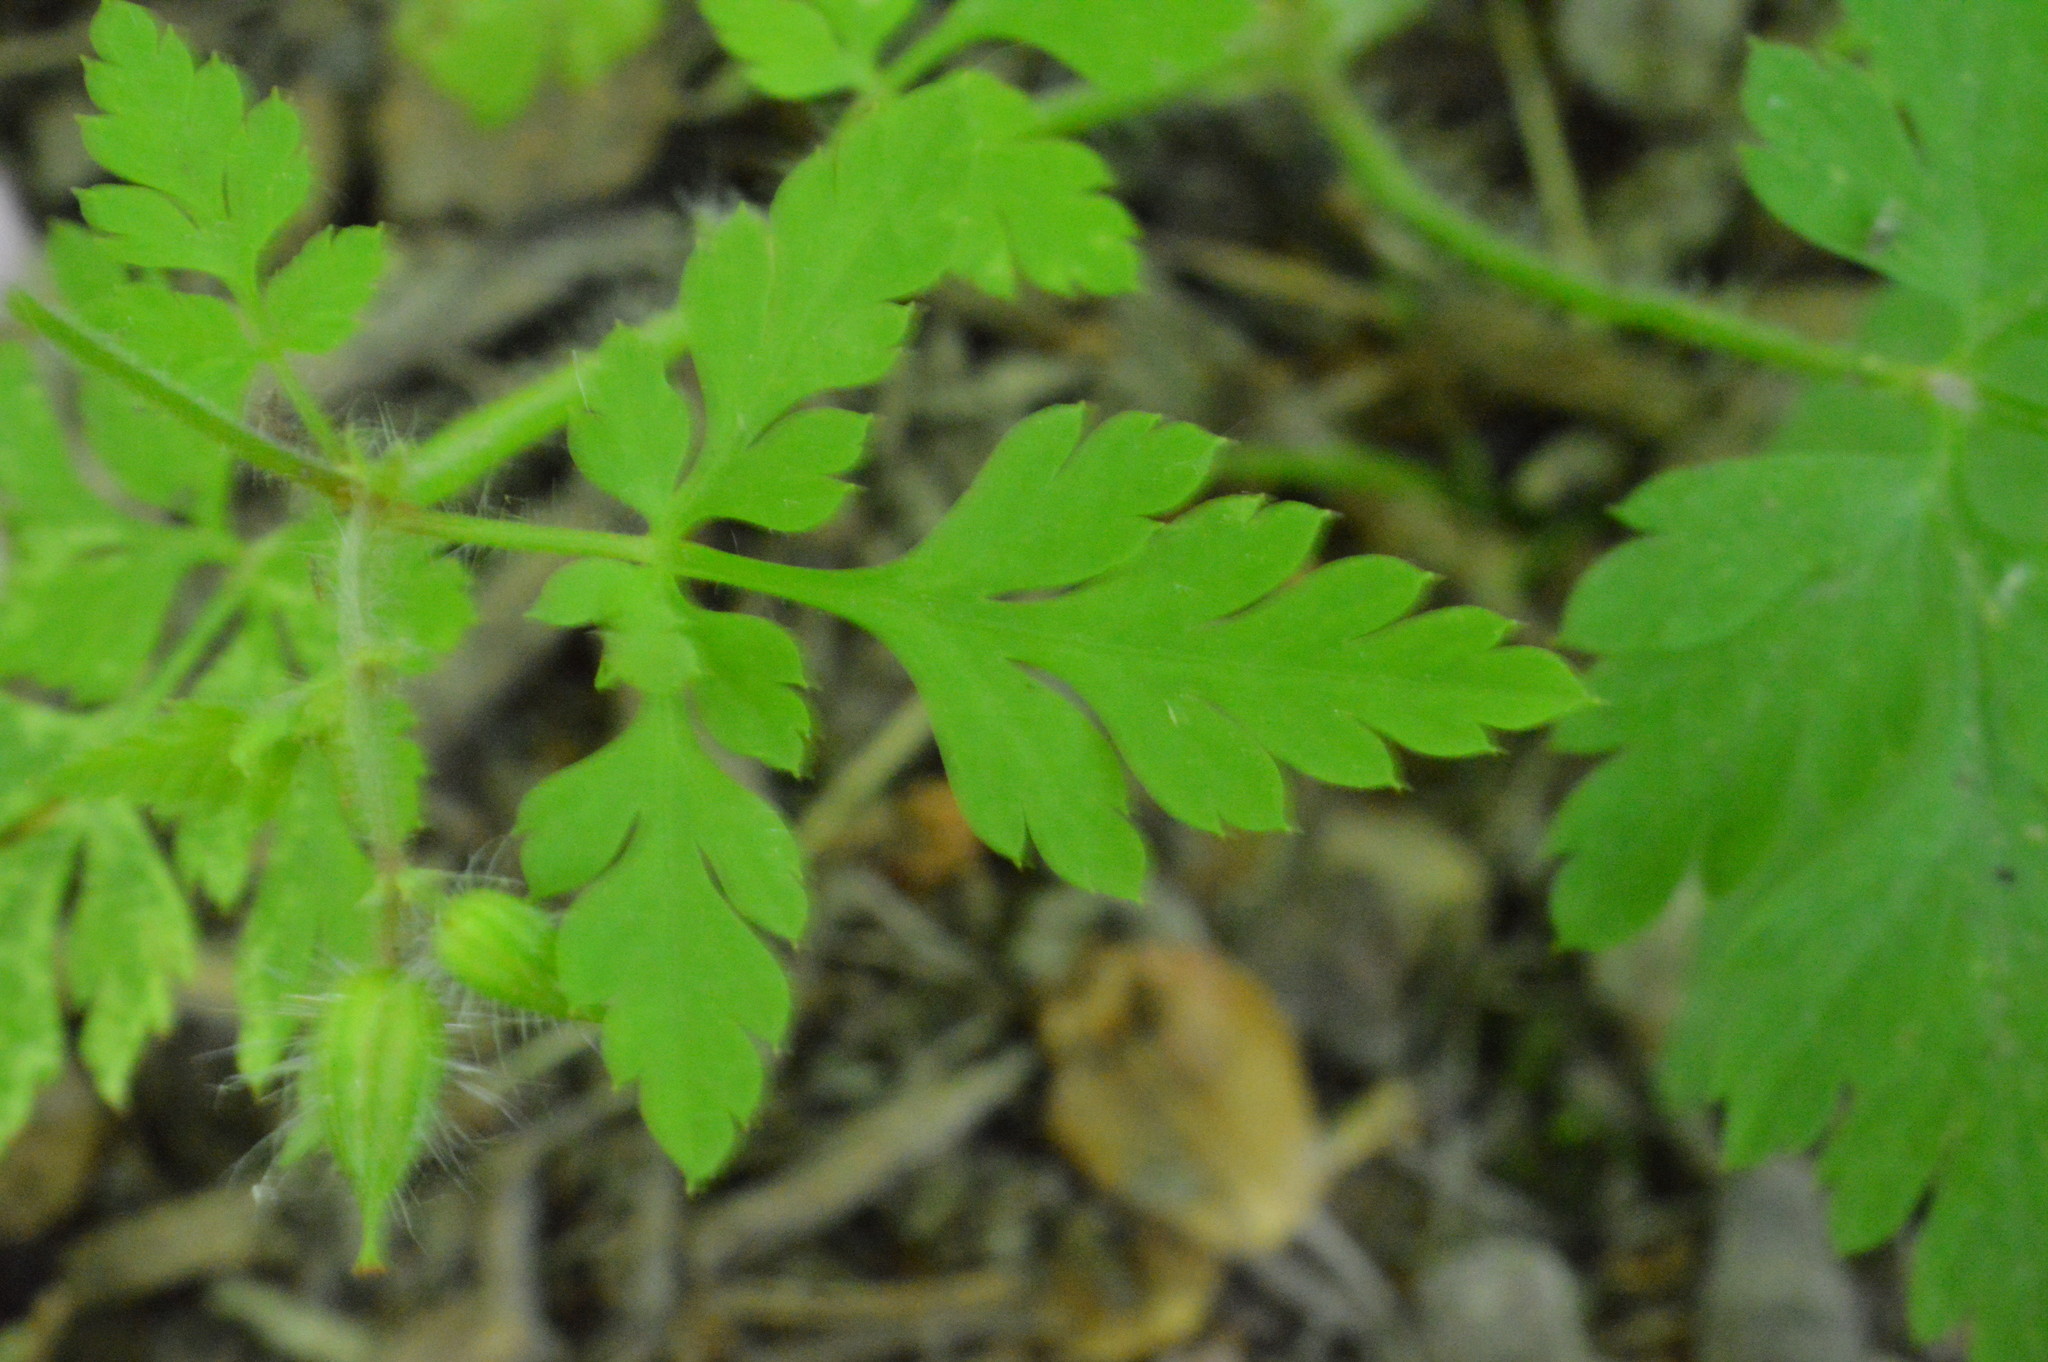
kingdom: Plantae
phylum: Tracheophyta
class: Magnoliopsida
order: Geraniales
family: Geraniaceae
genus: Geranium
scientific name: Geranium robertianum
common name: Herb-robert
